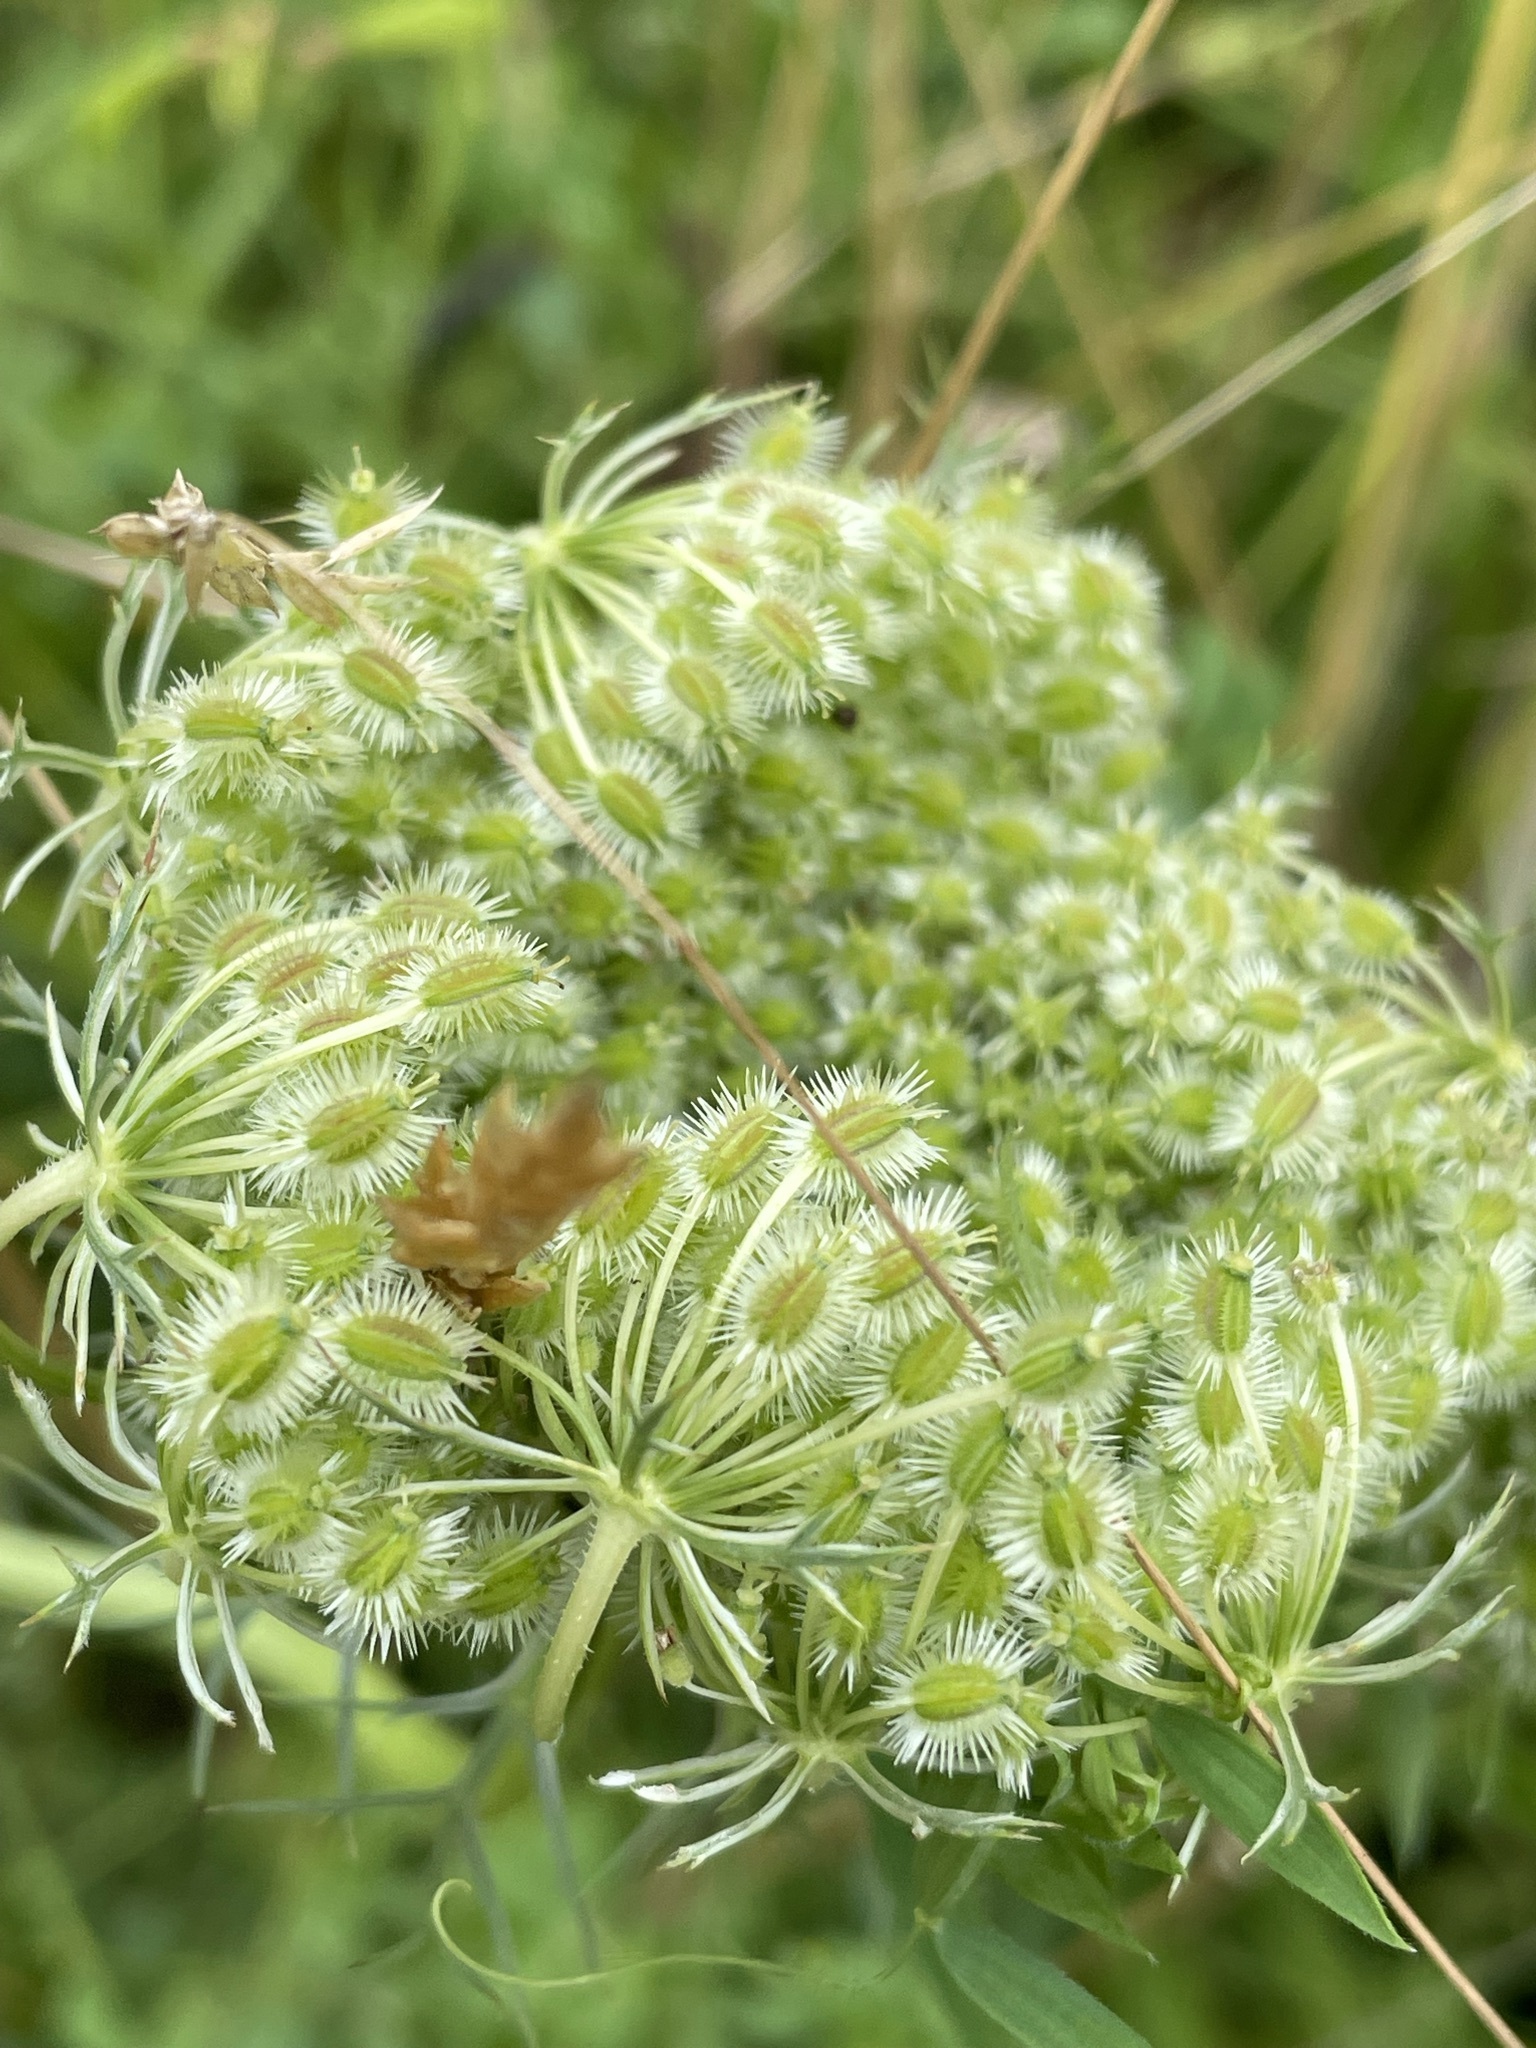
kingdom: Plantae
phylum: Tracheophyta
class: Magnoliopsida
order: Apiales
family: Apiaceae
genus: Daucus
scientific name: Daucus carota
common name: Wild carrot
